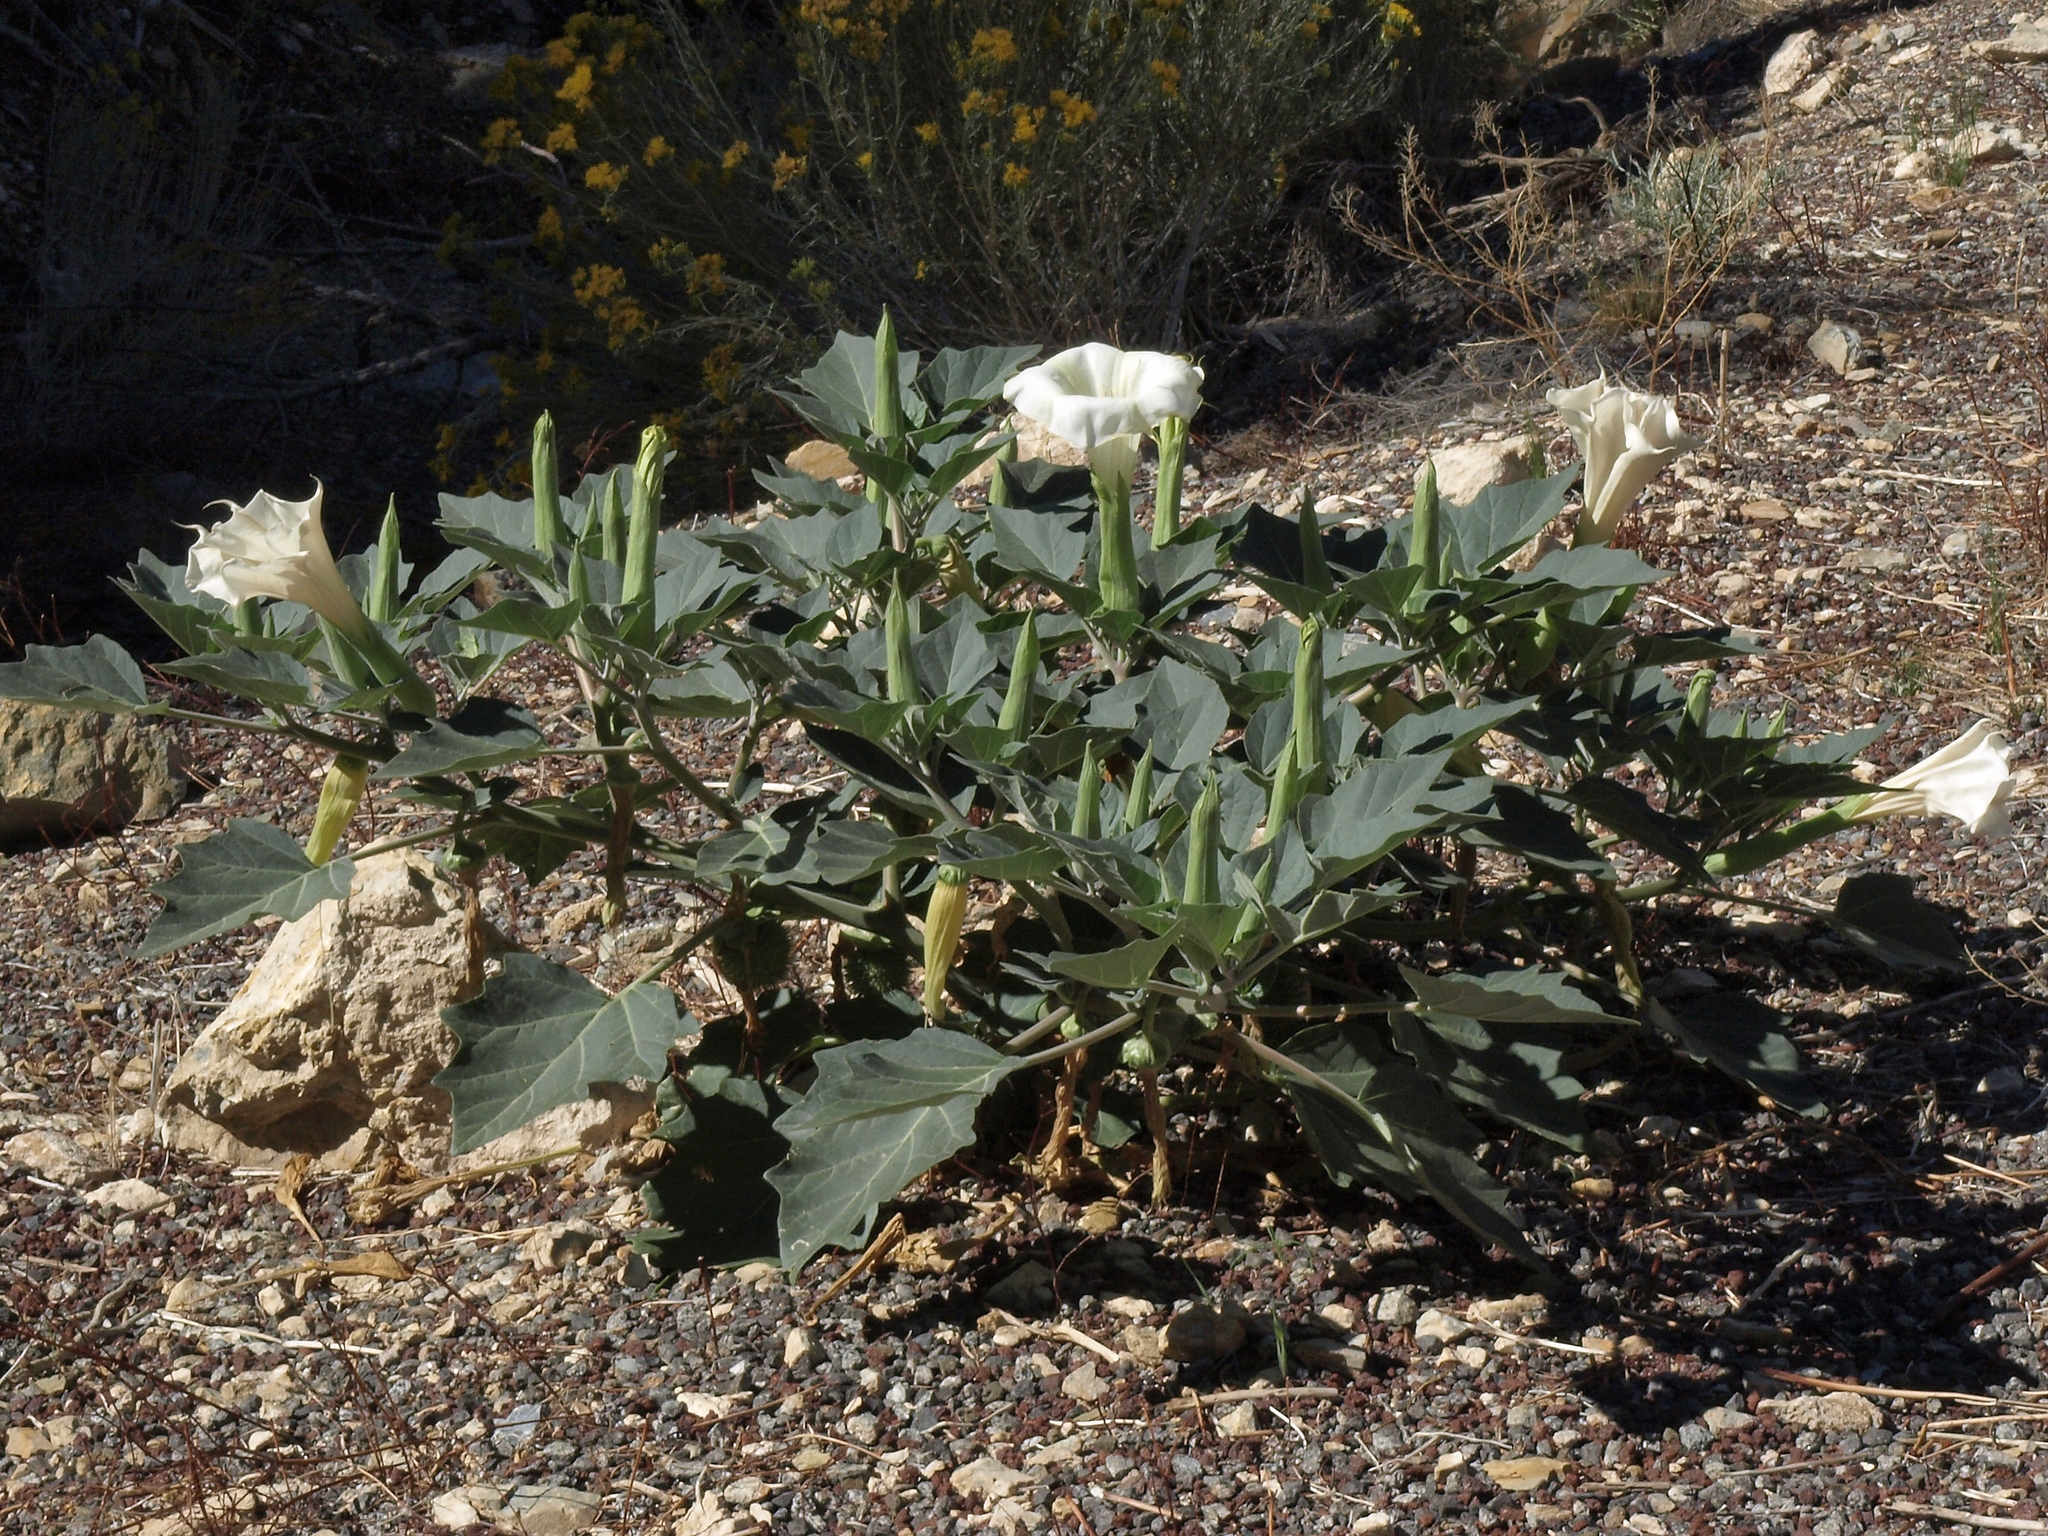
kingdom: Plantae
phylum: Tracheophyta
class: Magnoliopsida
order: Solanales
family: Solanaceae
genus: Datura
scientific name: Datura wrightii
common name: Sacred thorn-apple
